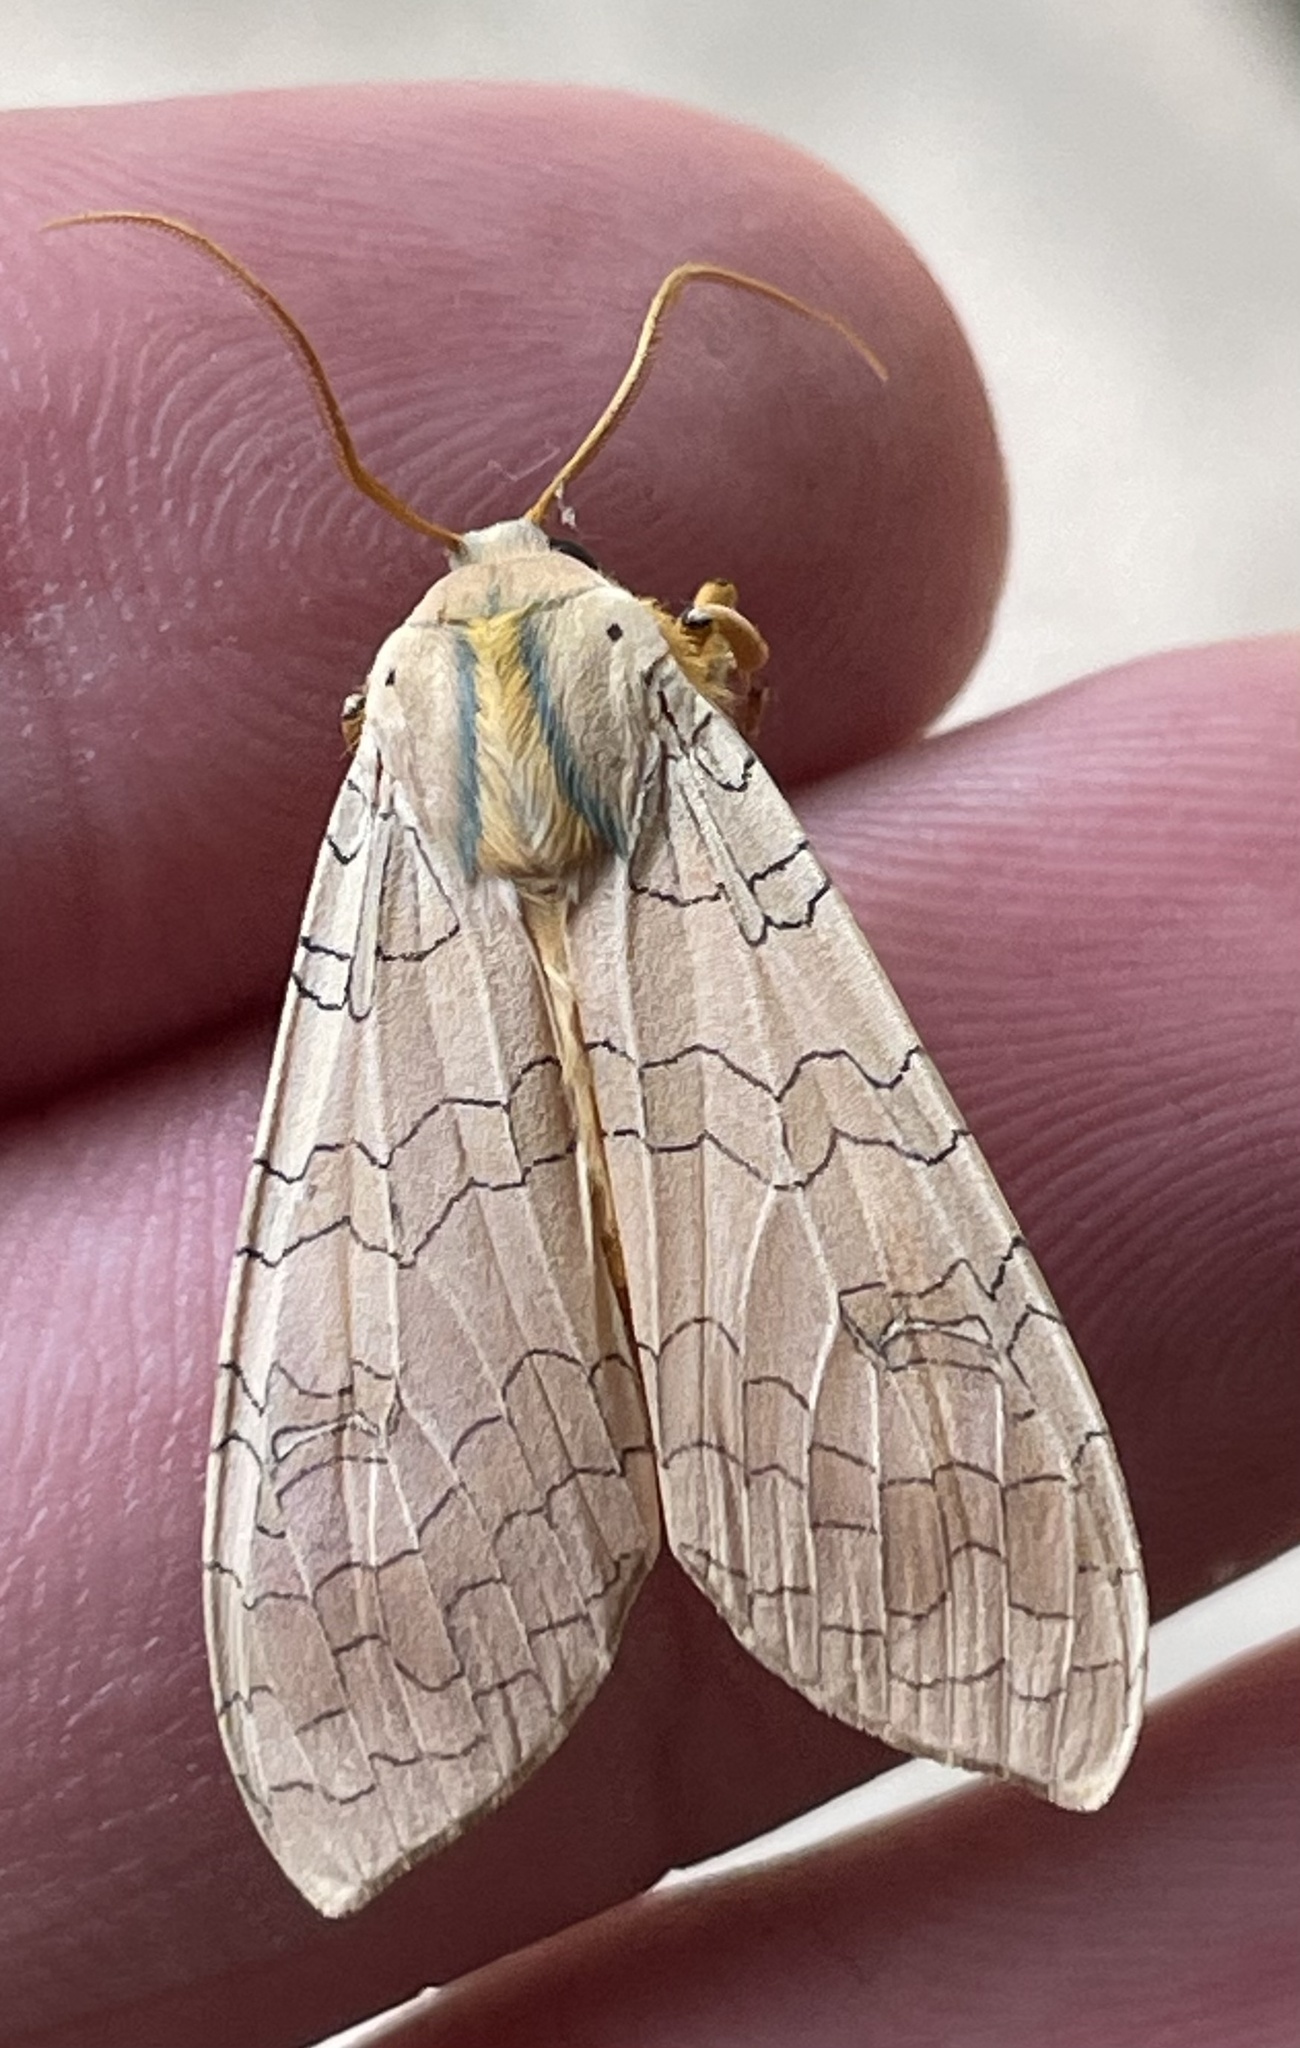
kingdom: Animalia
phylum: Arthropoda
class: Insecta
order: Lepidoptera
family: Erebidae
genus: Halysidota
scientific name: Halysidota
